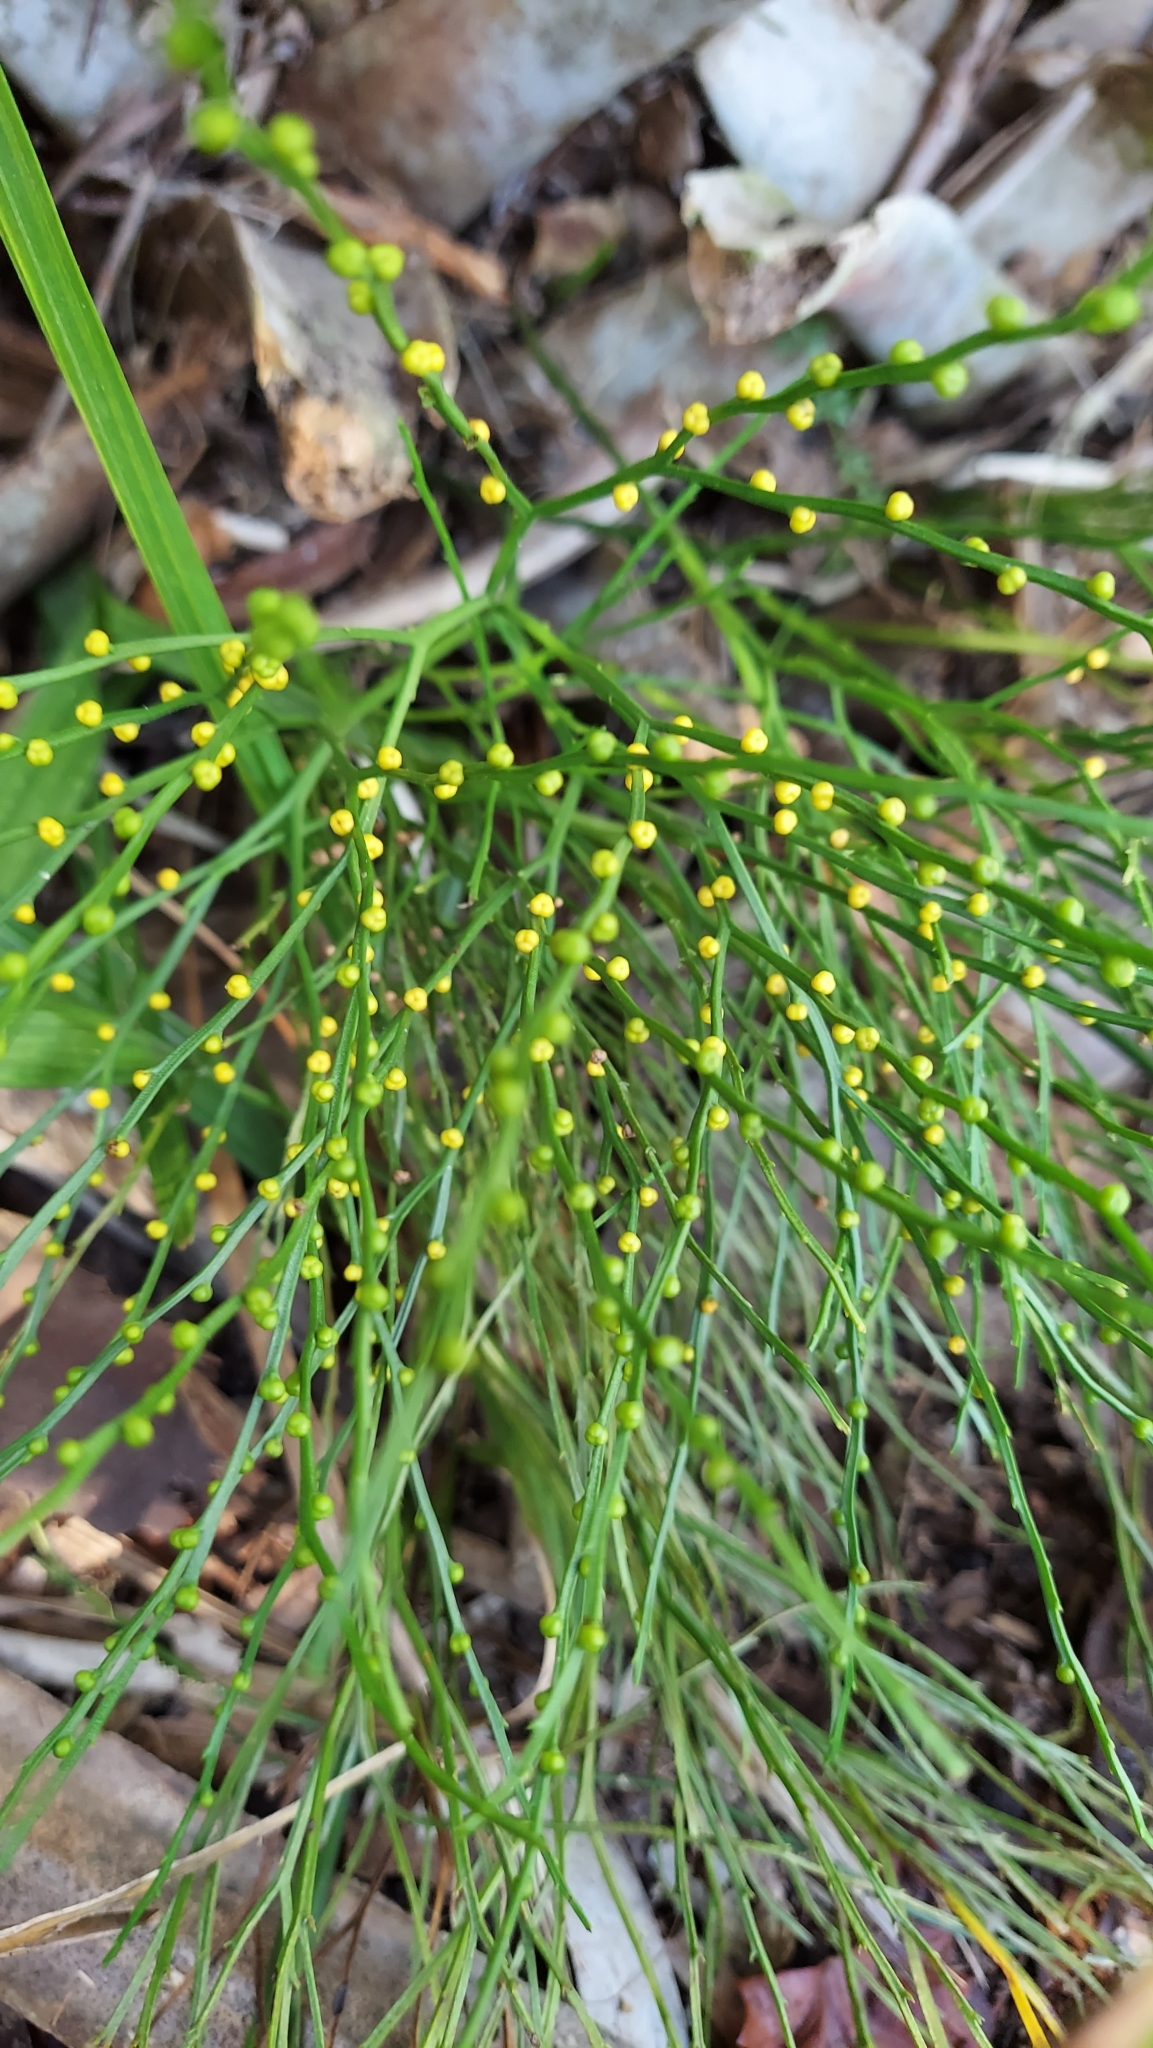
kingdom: Plantae
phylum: Tracheophyta
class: Polypodiopsida
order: Psilotales
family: Psilotaceae
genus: Psilotum
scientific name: Psilotum nudum
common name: Skeleton fork fern
